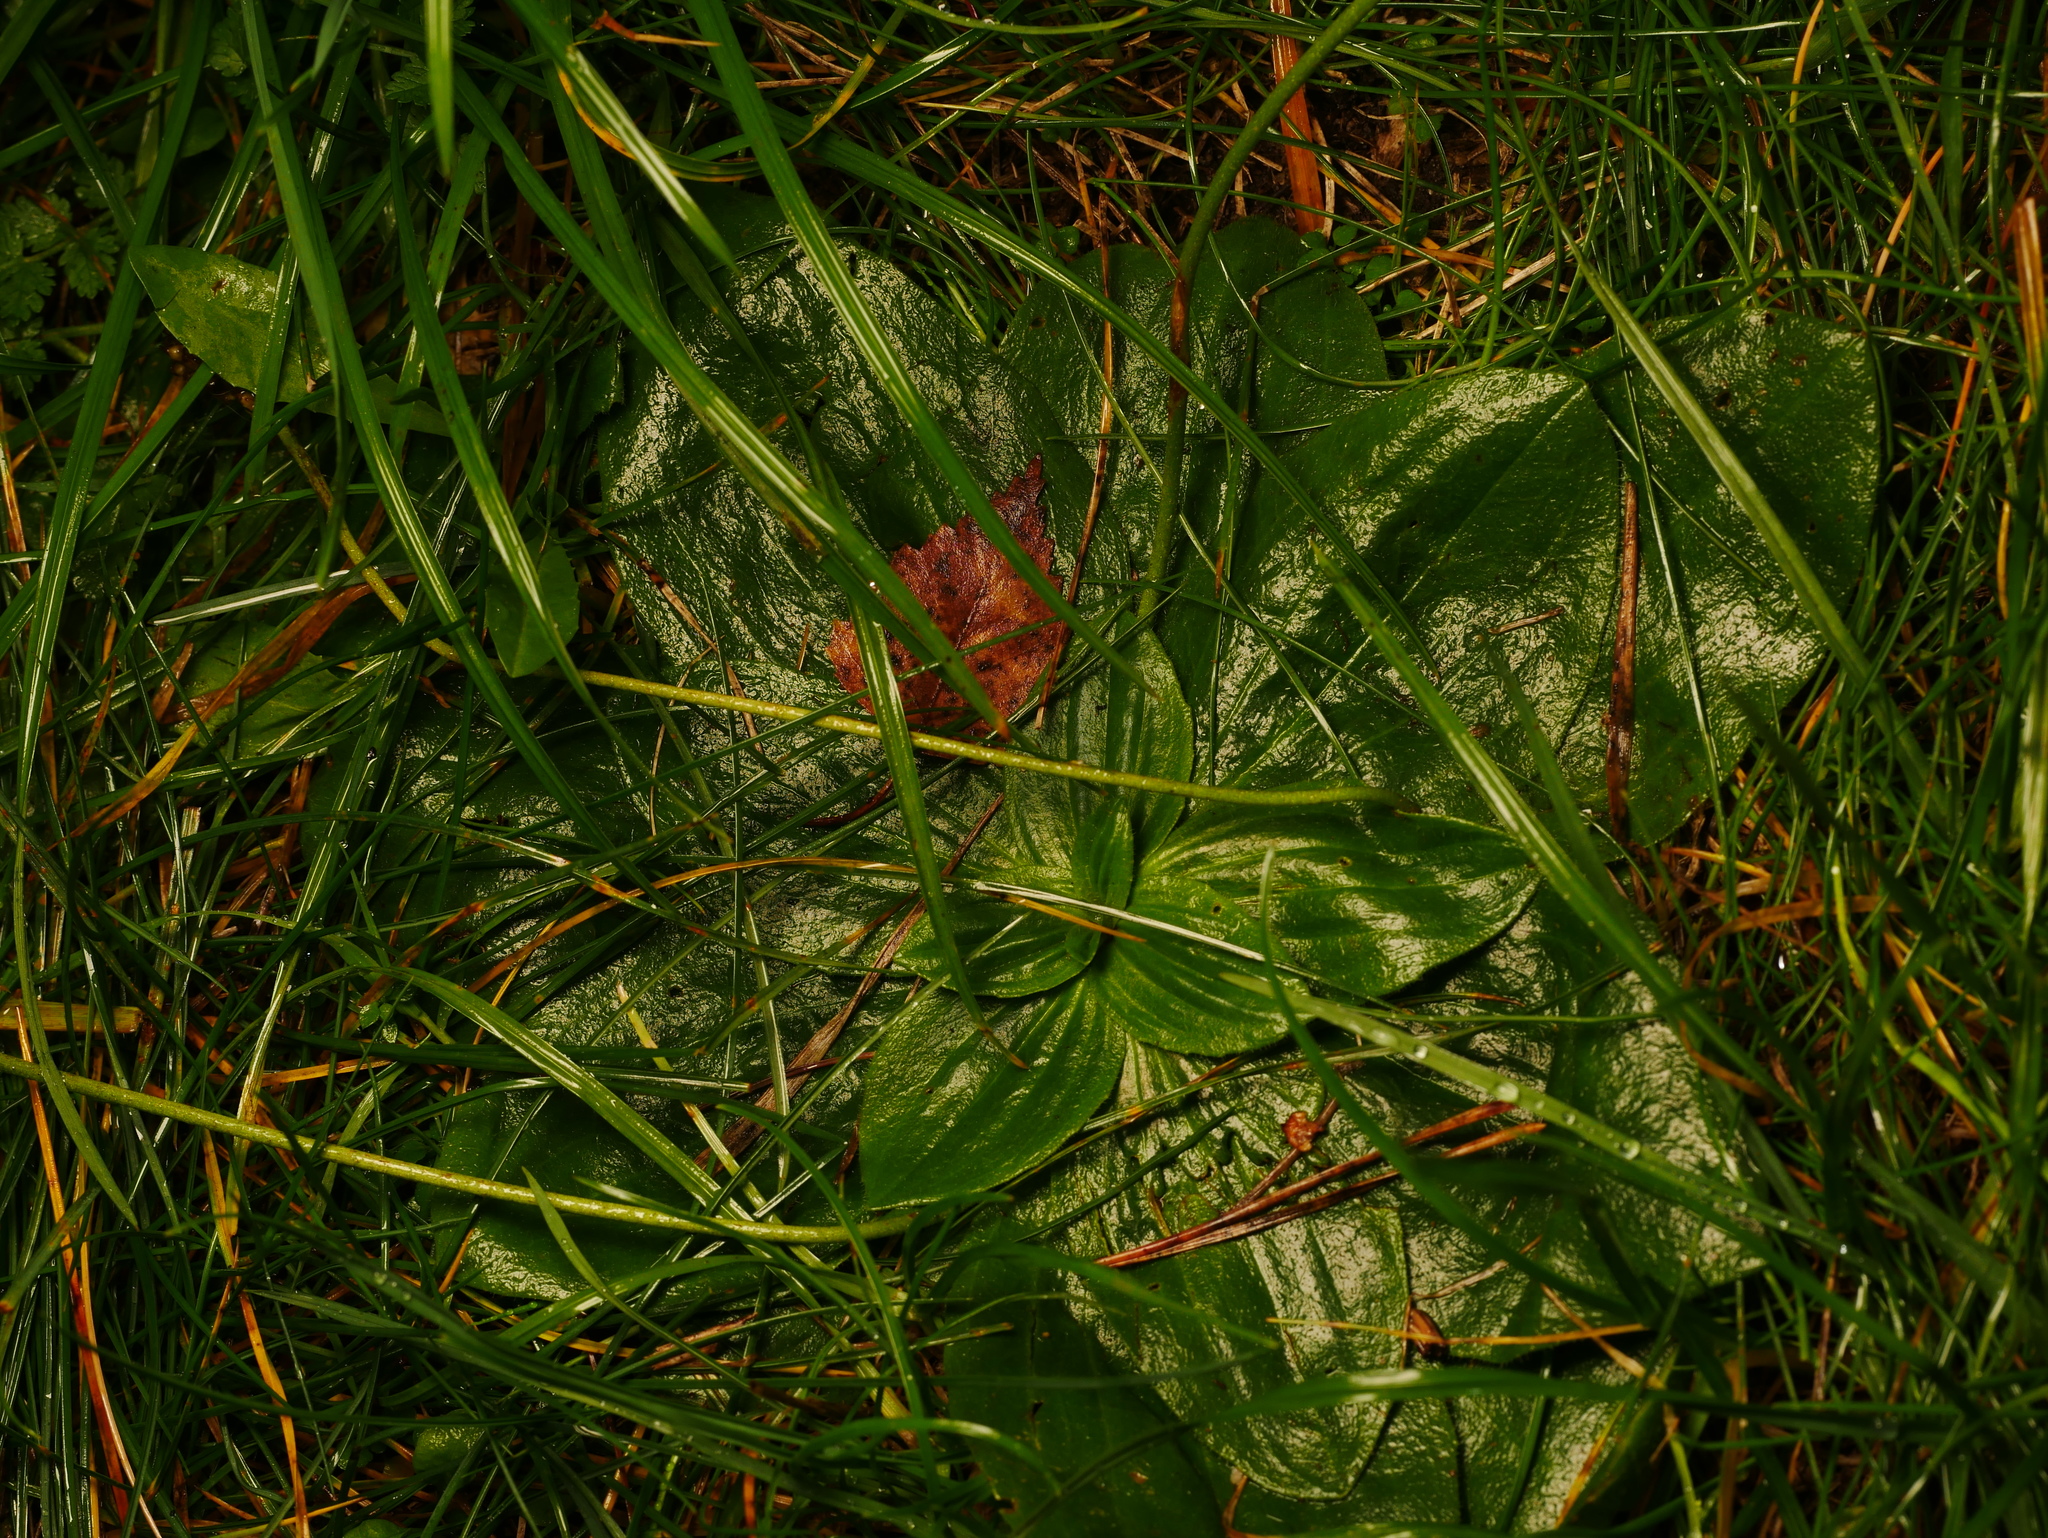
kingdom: Plantae
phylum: Tracheophyta
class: Magnoliopsida
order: Lamiales
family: Plantaginaceae
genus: Plantago
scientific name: Plantago media
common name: Hoary plantain
